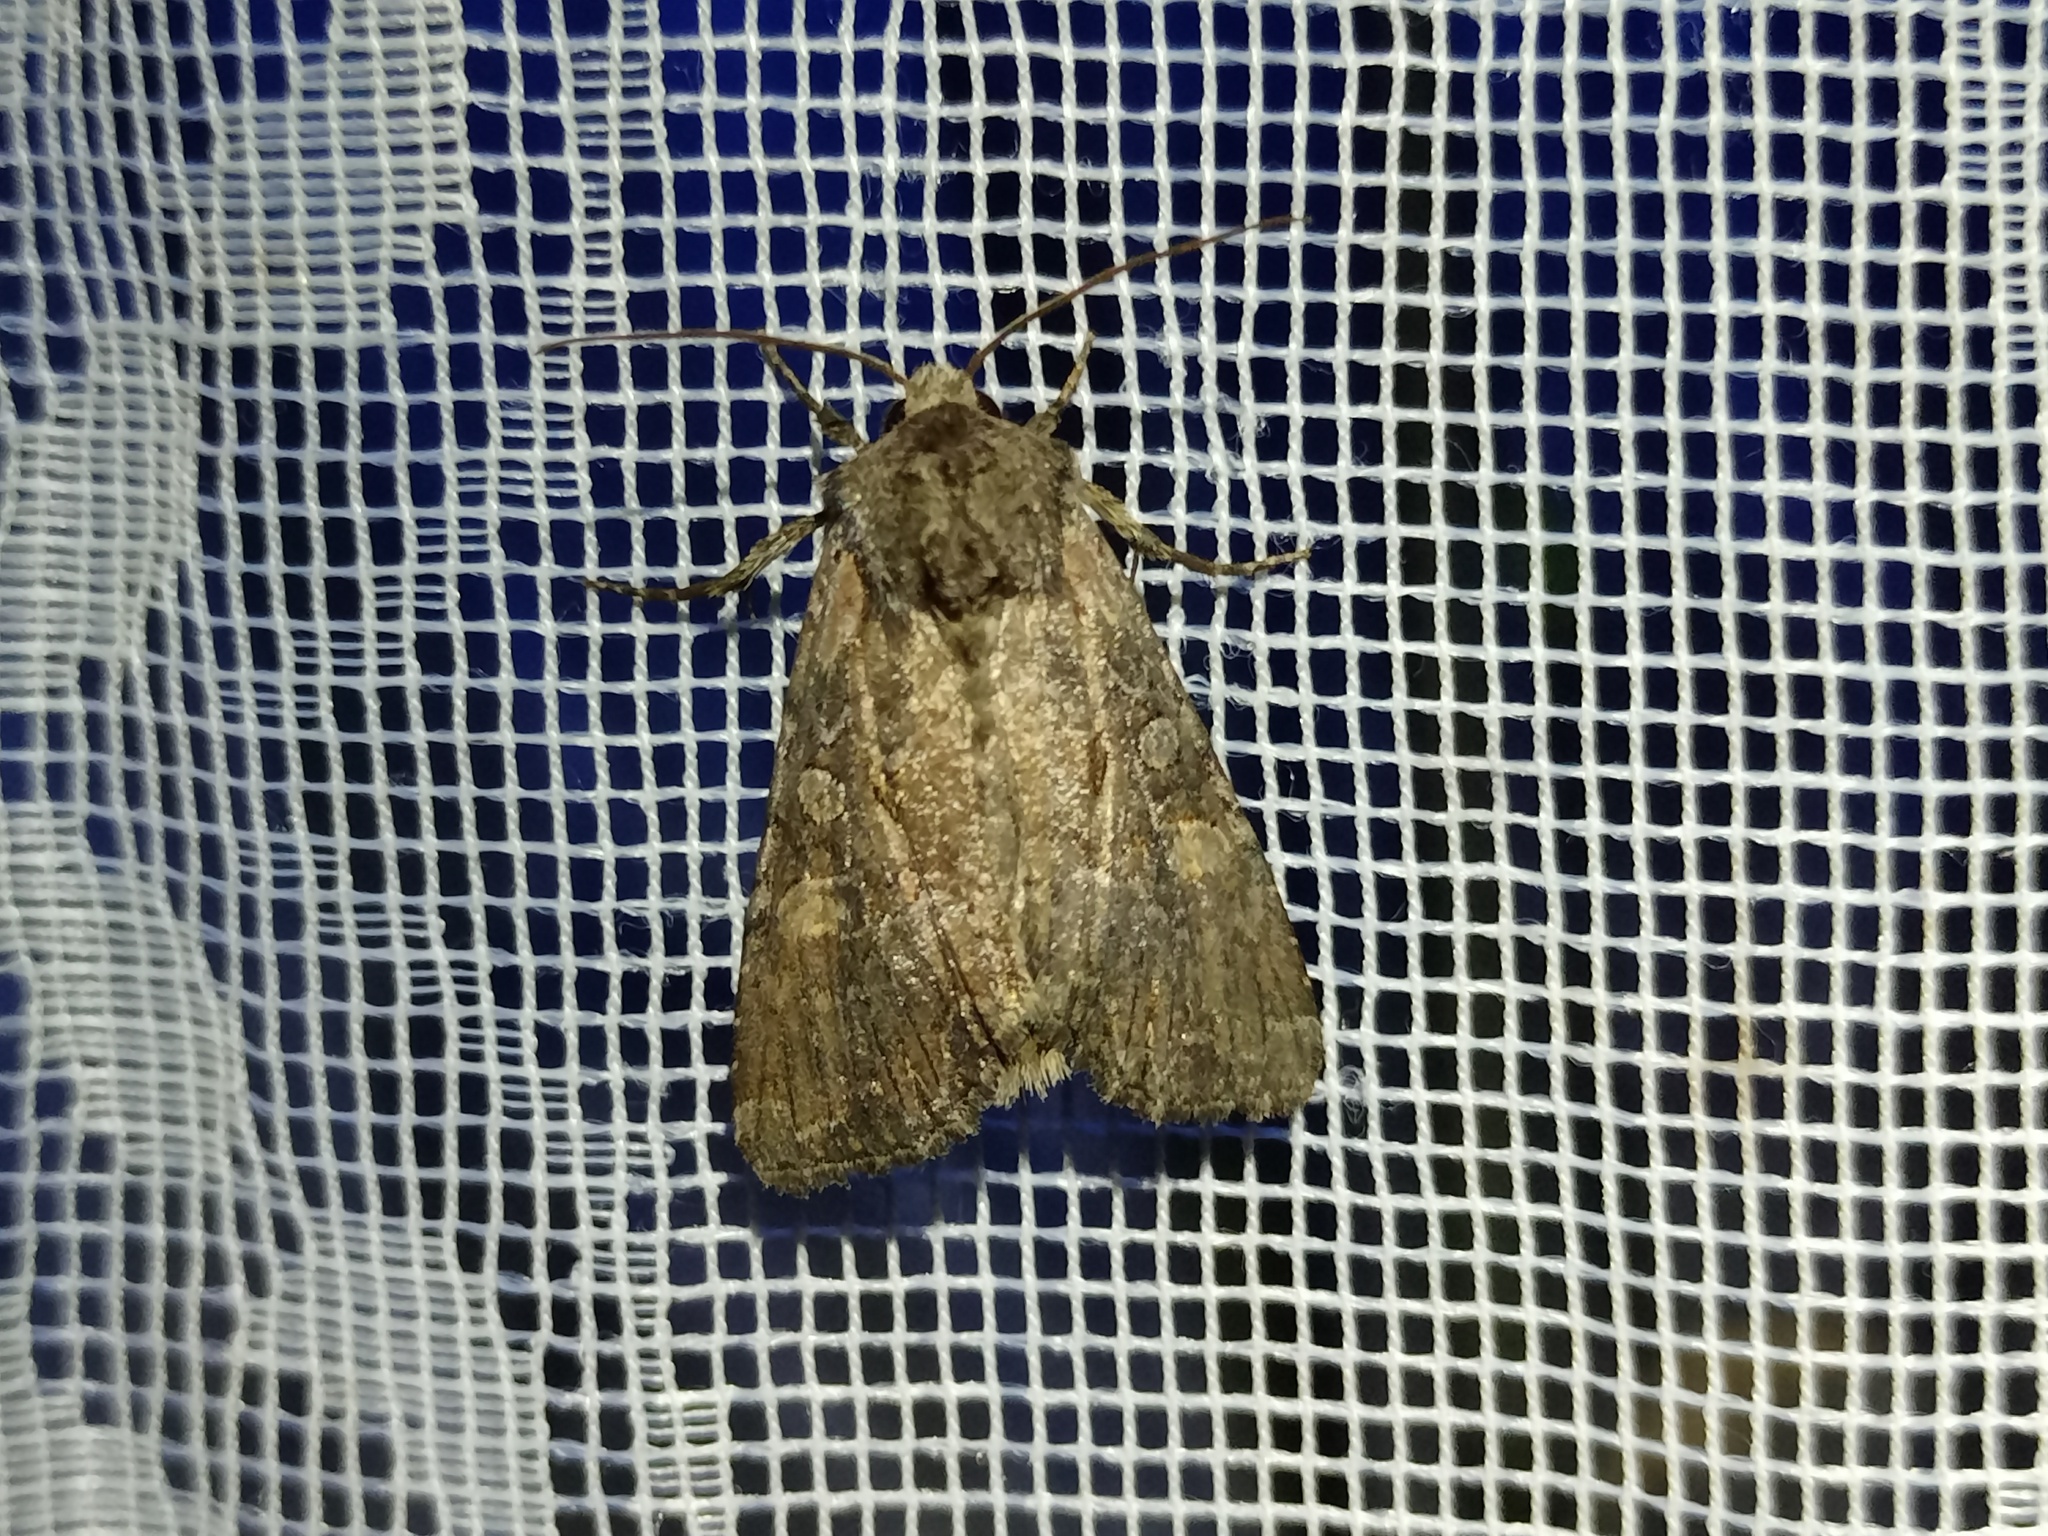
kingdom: Animalia
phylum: Arthropoda
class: Insecta
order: Lepidoptera
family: Noctuidae
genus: Lacanobia
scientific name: Lacanobia aliena
